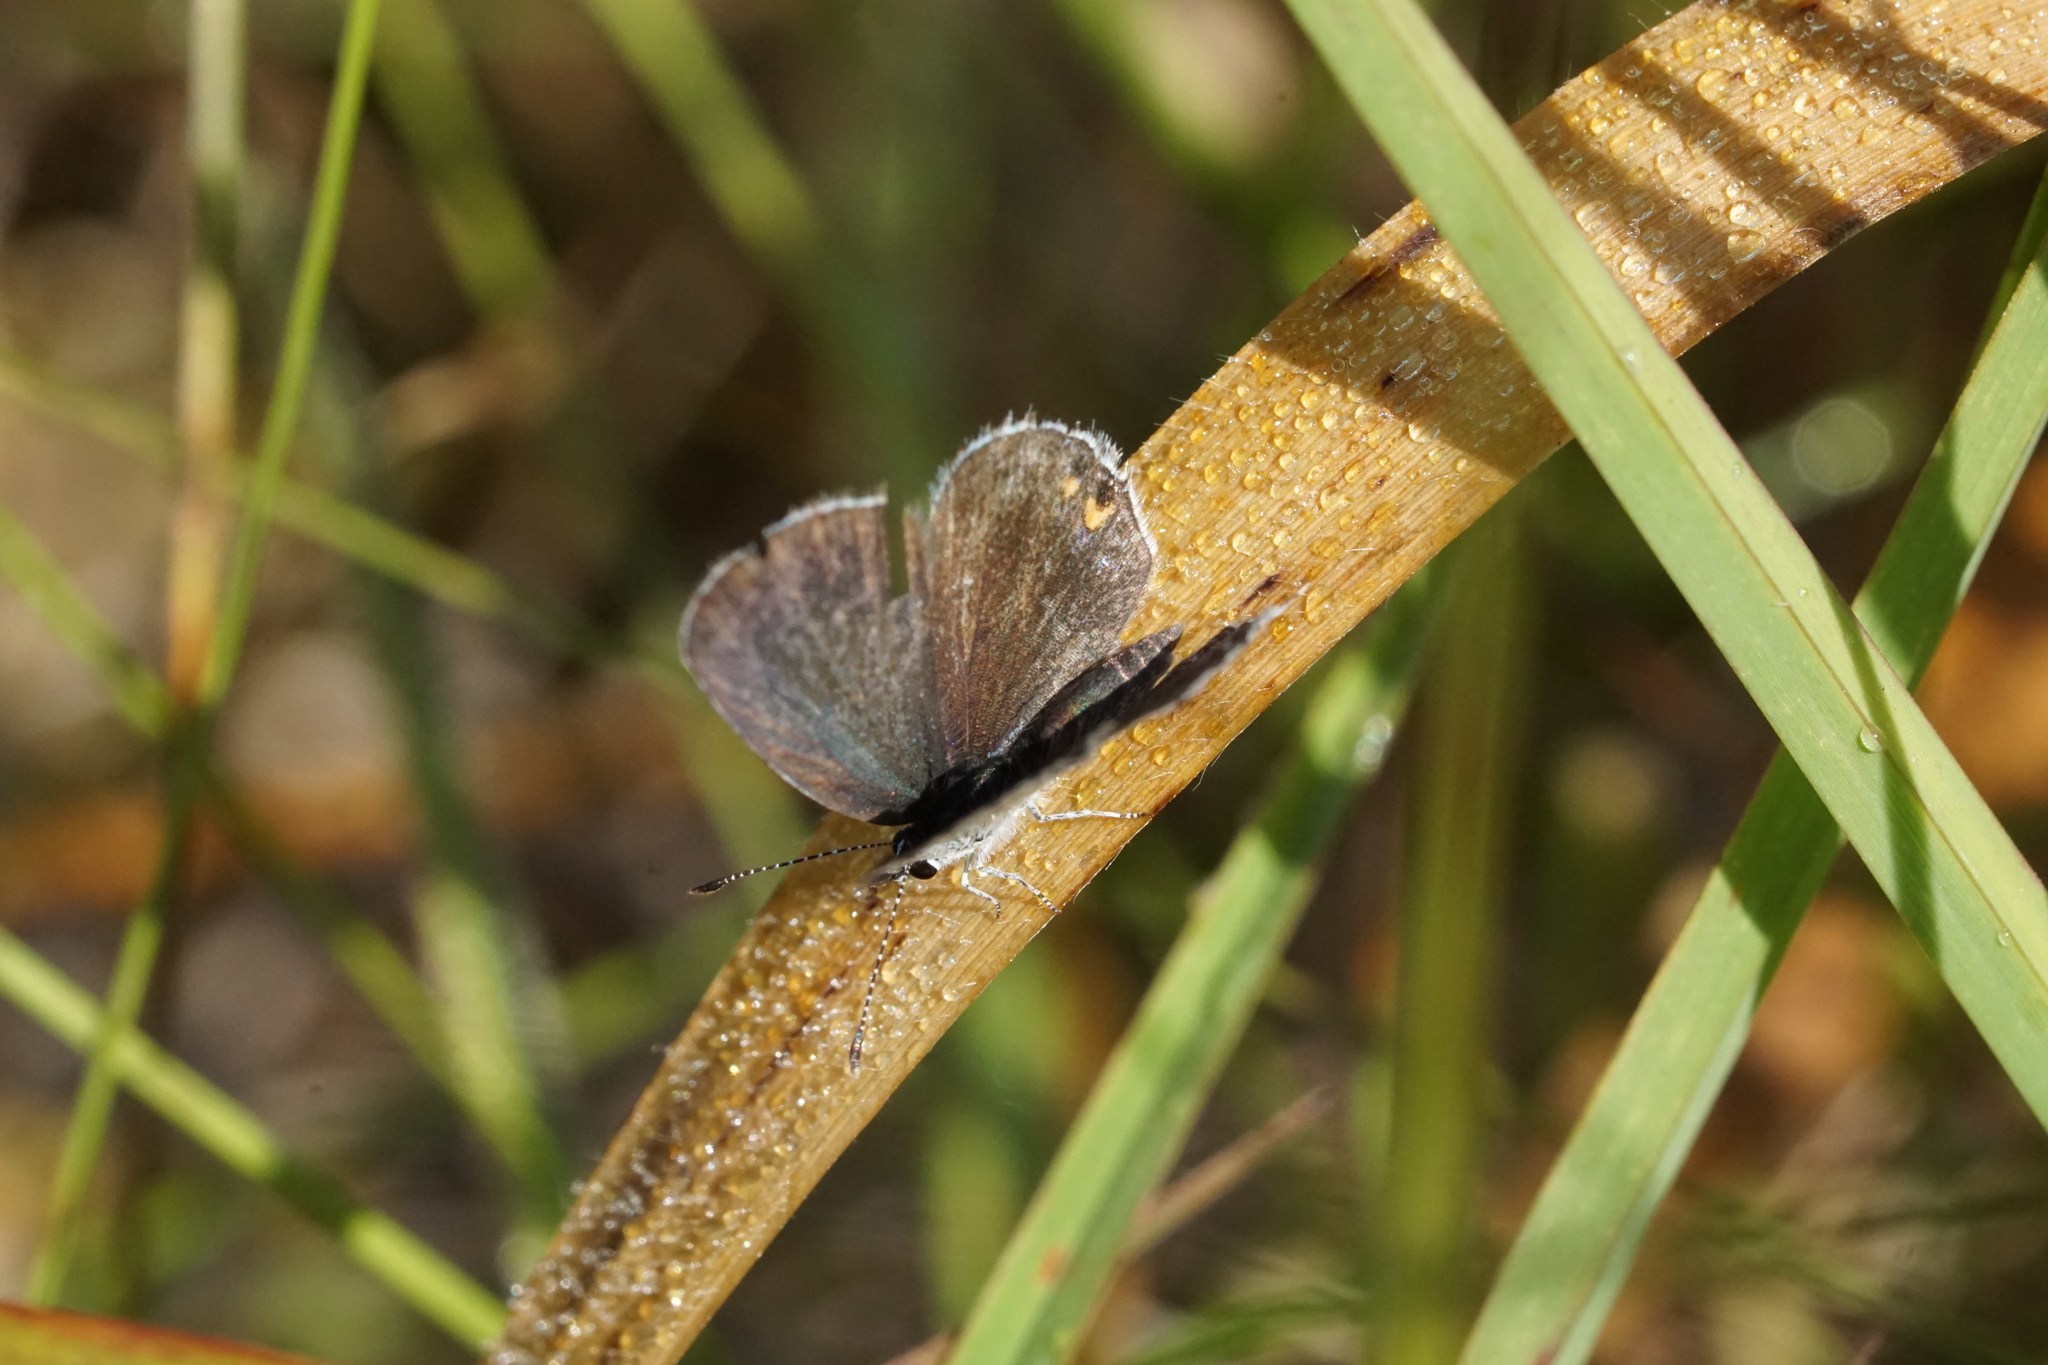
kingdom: Animalia
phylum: Arthropoda
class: Insecta
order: Lepidoptera
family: Lycaenidae
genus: Elkalyce
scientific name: Elkalyce comyntas
